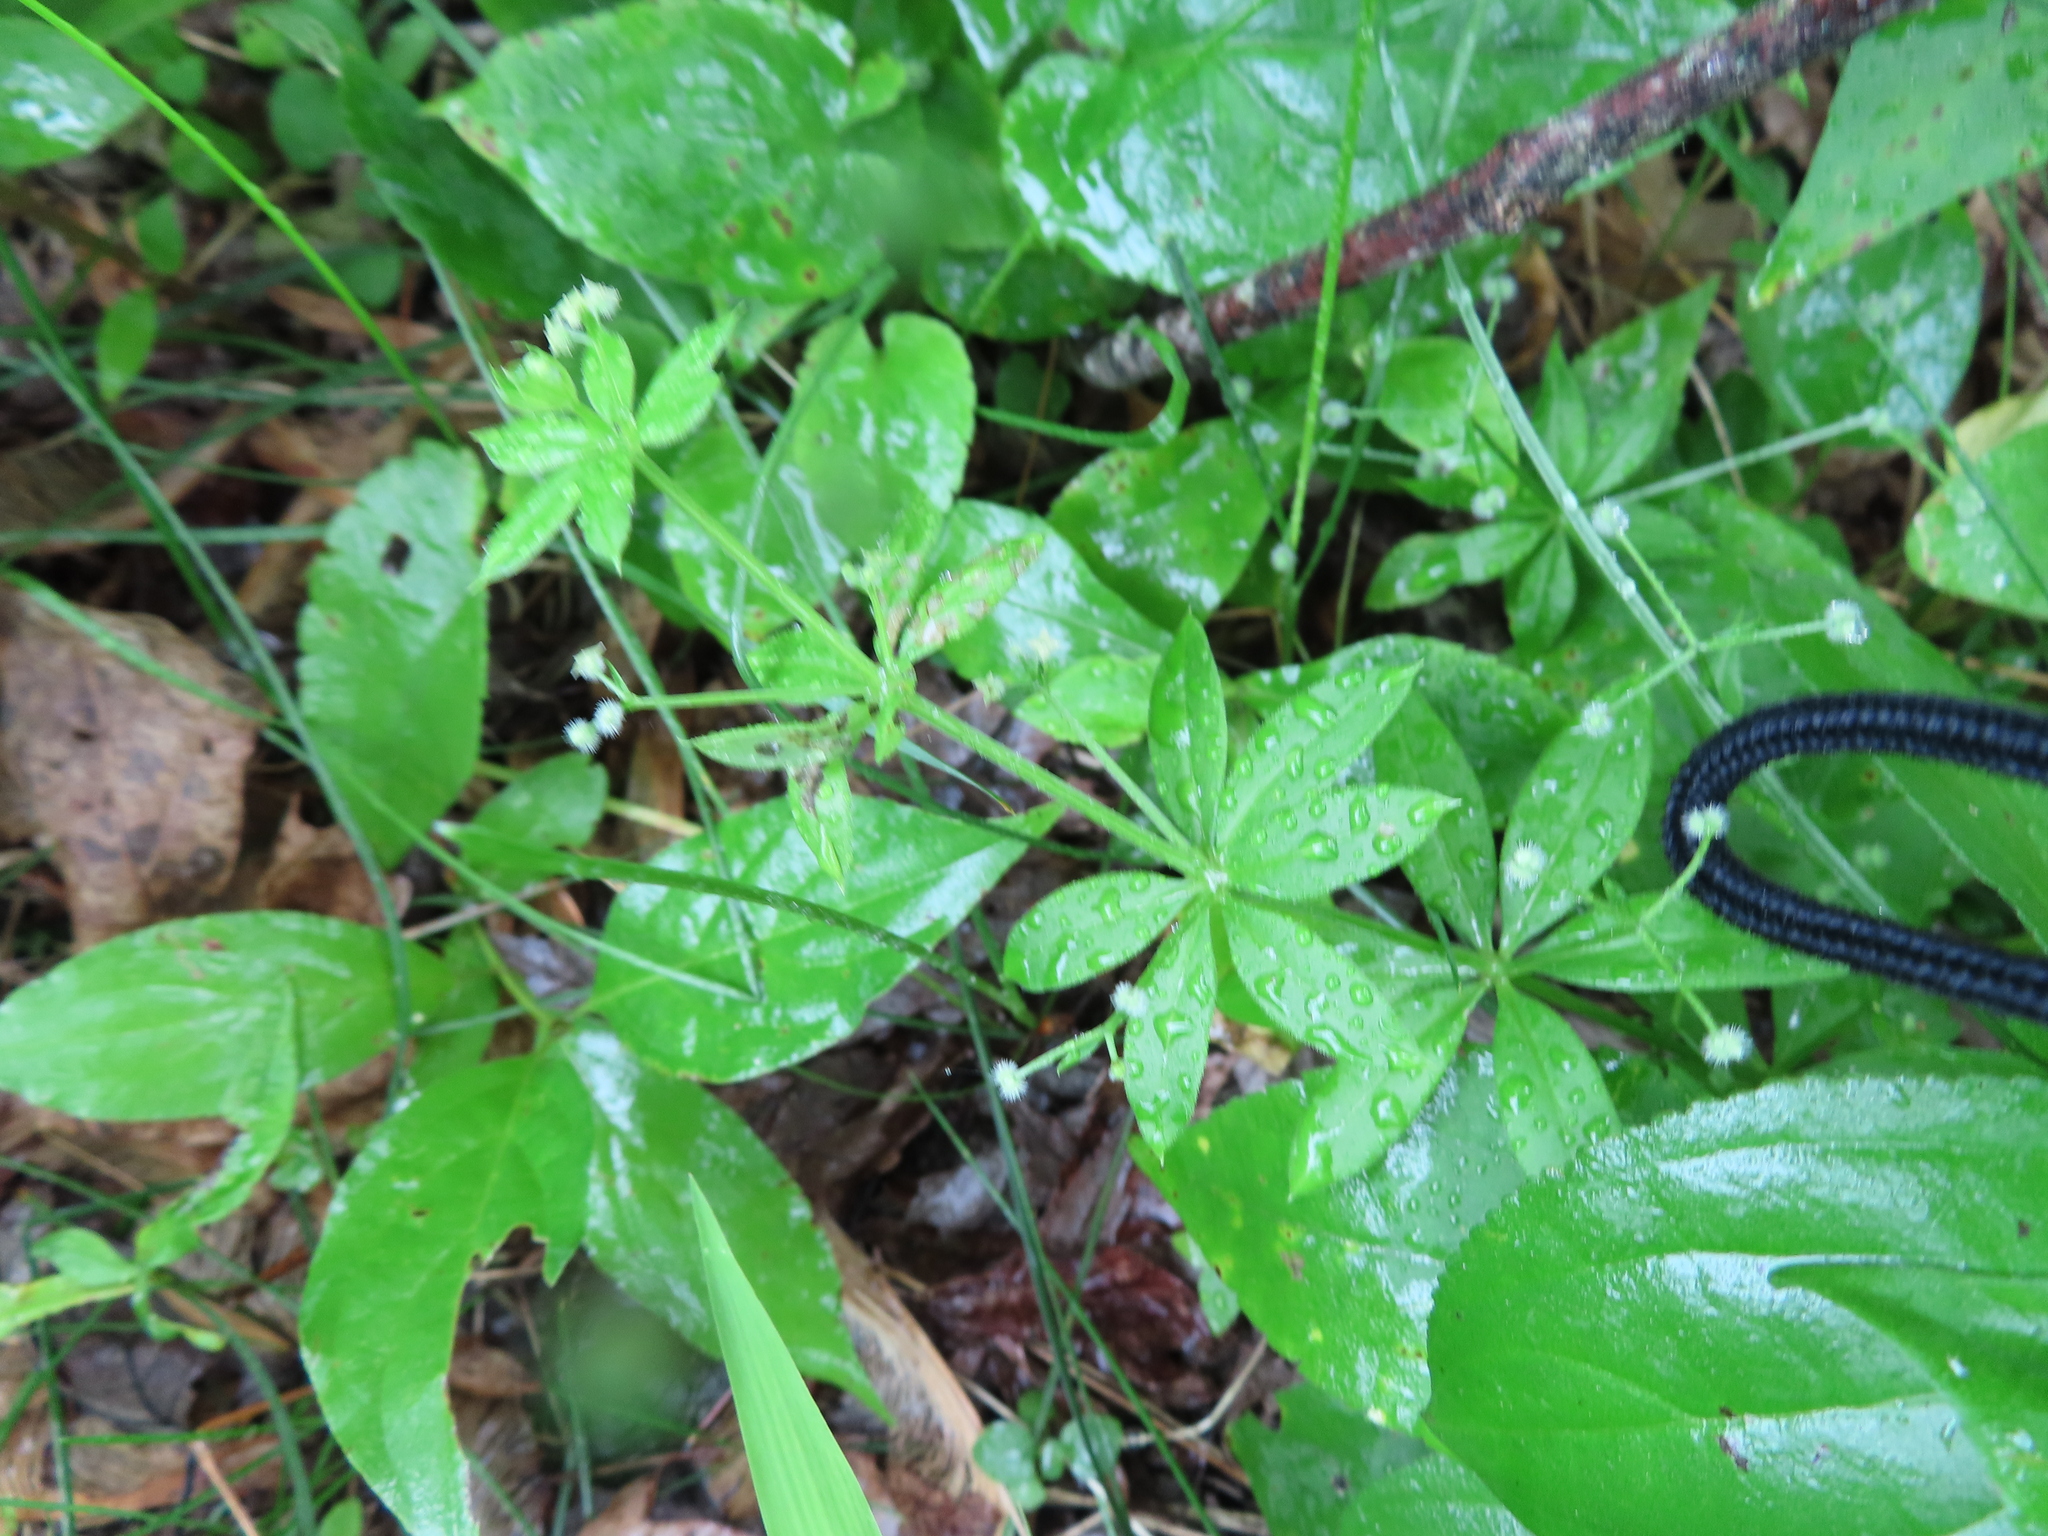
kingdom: Plantae
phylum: Tracheophyta
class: Magnoliopsida
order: Gentianales
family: Rubiaceae
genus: Galium
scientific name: Galium triflorum
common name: Fragrant bedstraw
